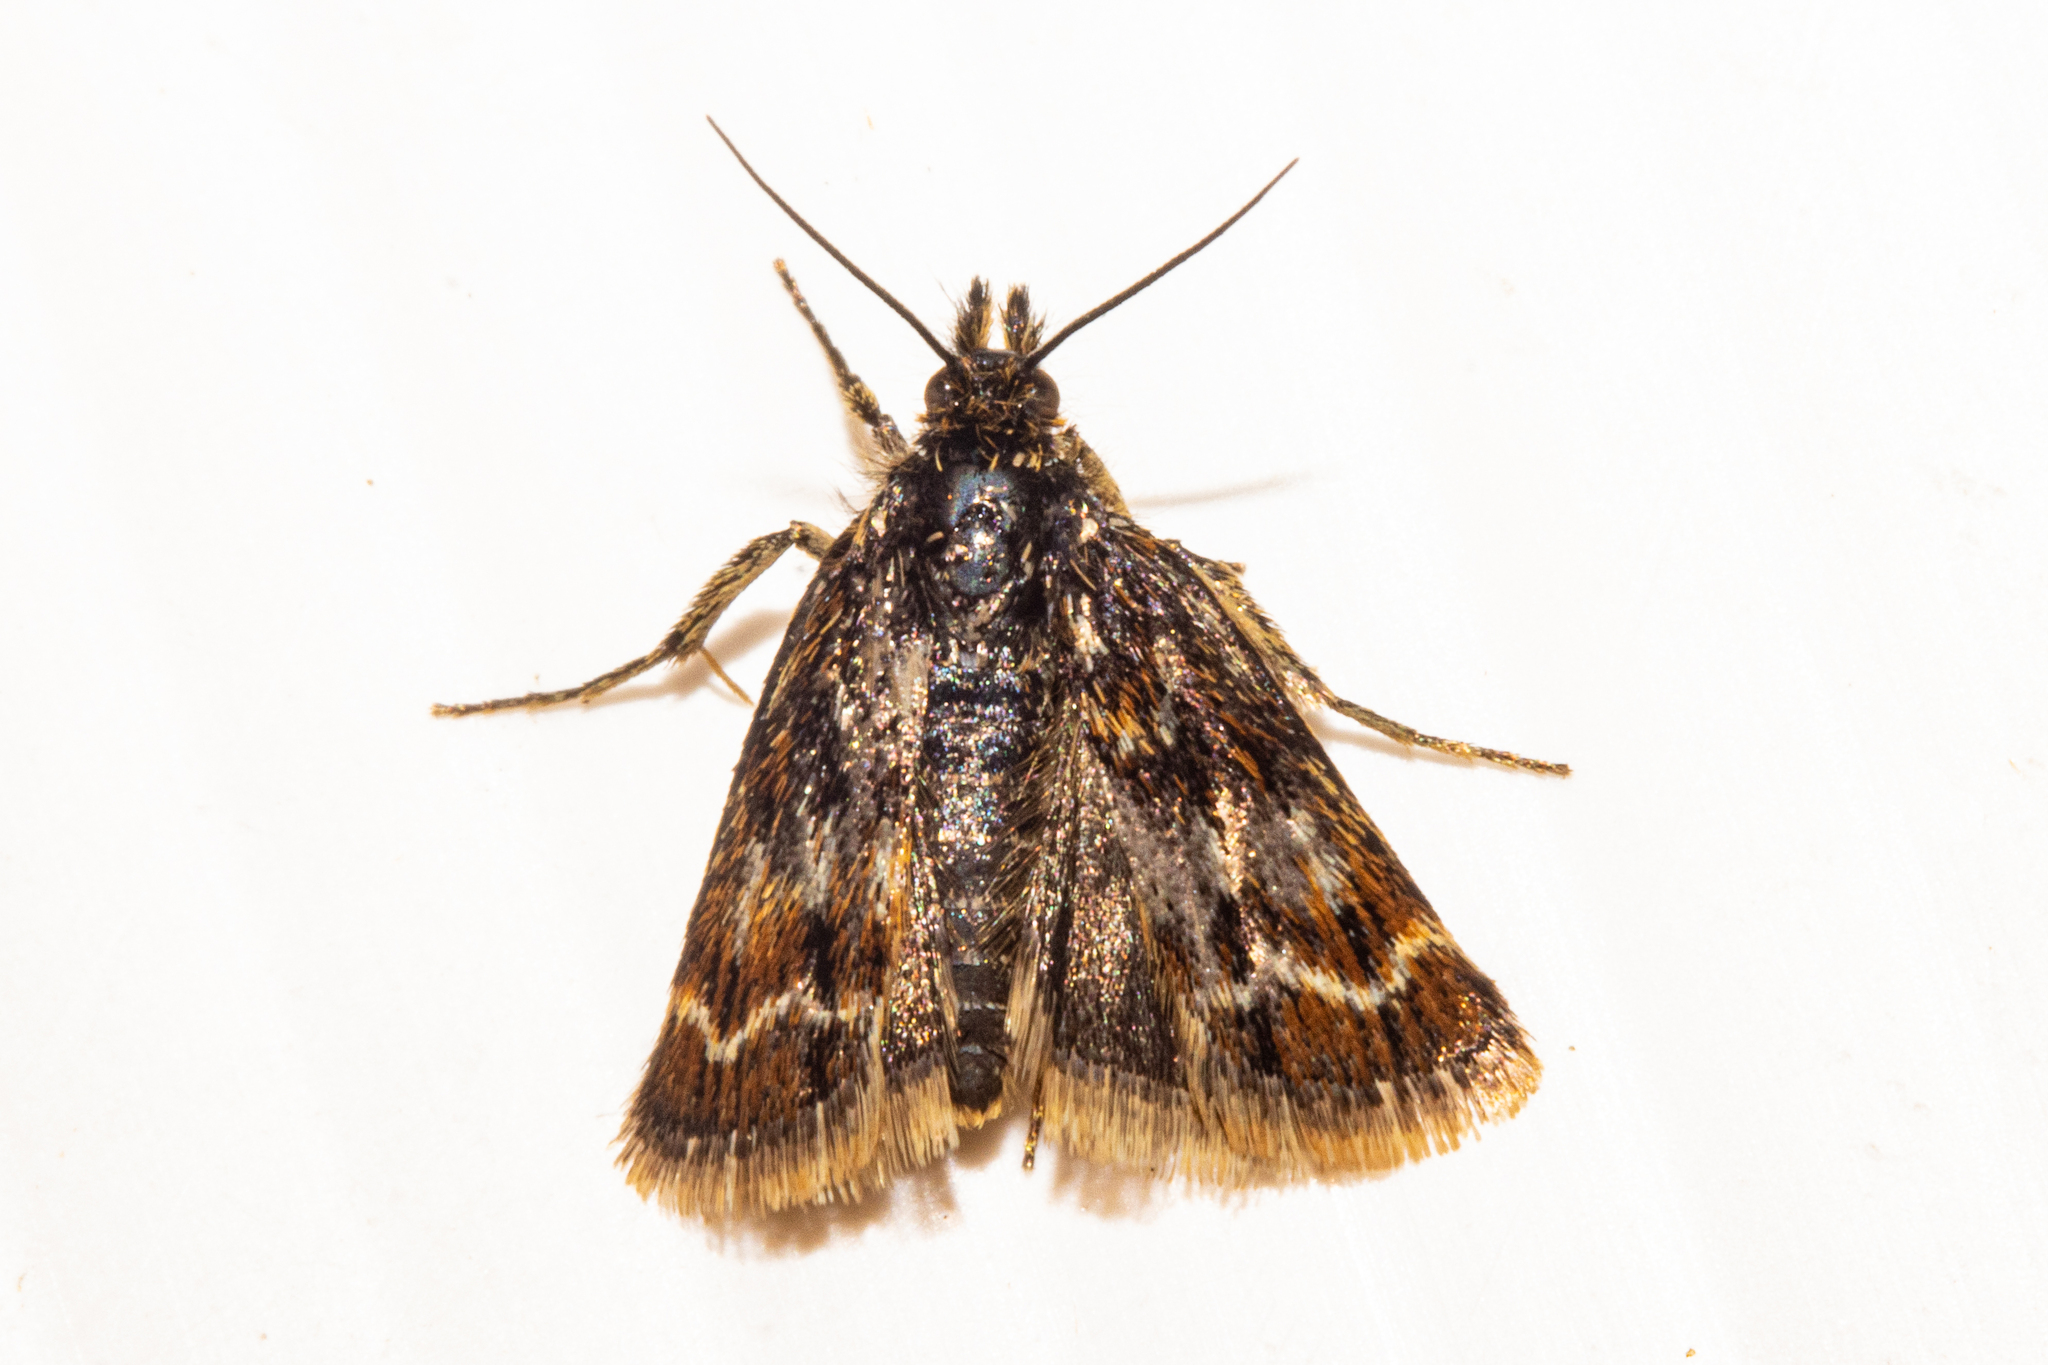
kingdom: Animalia
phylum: Arthropoda
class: Insecta
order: Lepidoptera
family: Crambidae
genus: Orocrambus
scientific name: Orocrambus scoparioides
